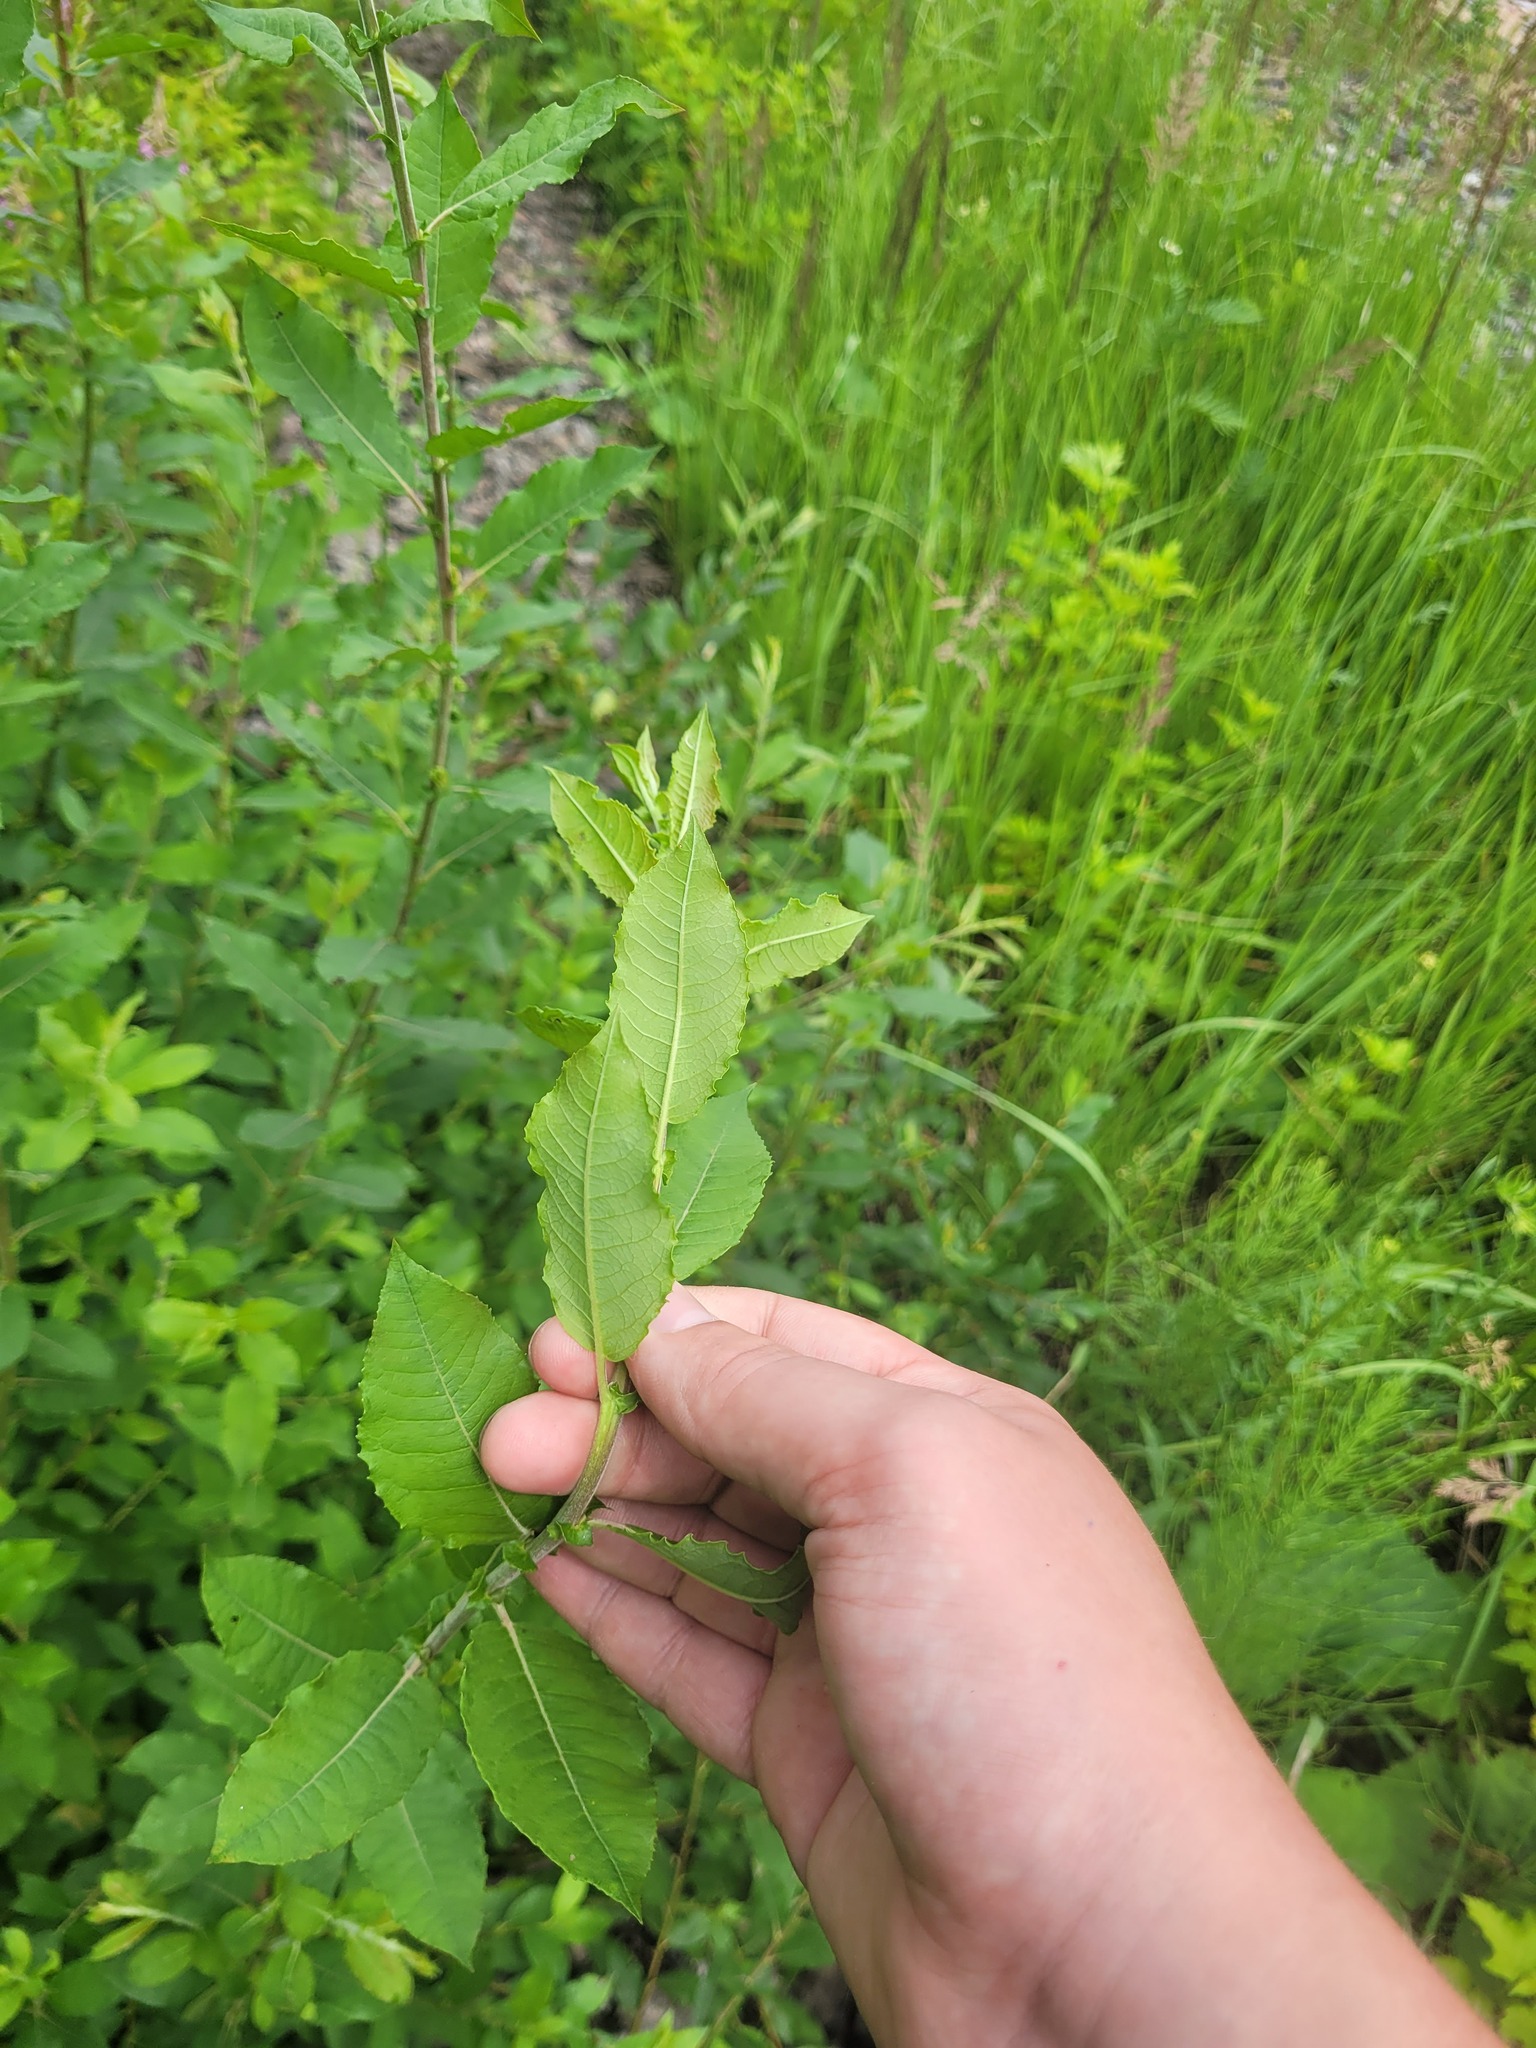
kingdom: Plantae
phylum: Tracheophyta
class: Magnoliopsida
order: Malpighiales
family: Salicaceae
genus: Salix
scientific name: Salix myrsinifolia
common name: Dark-leaved willow
